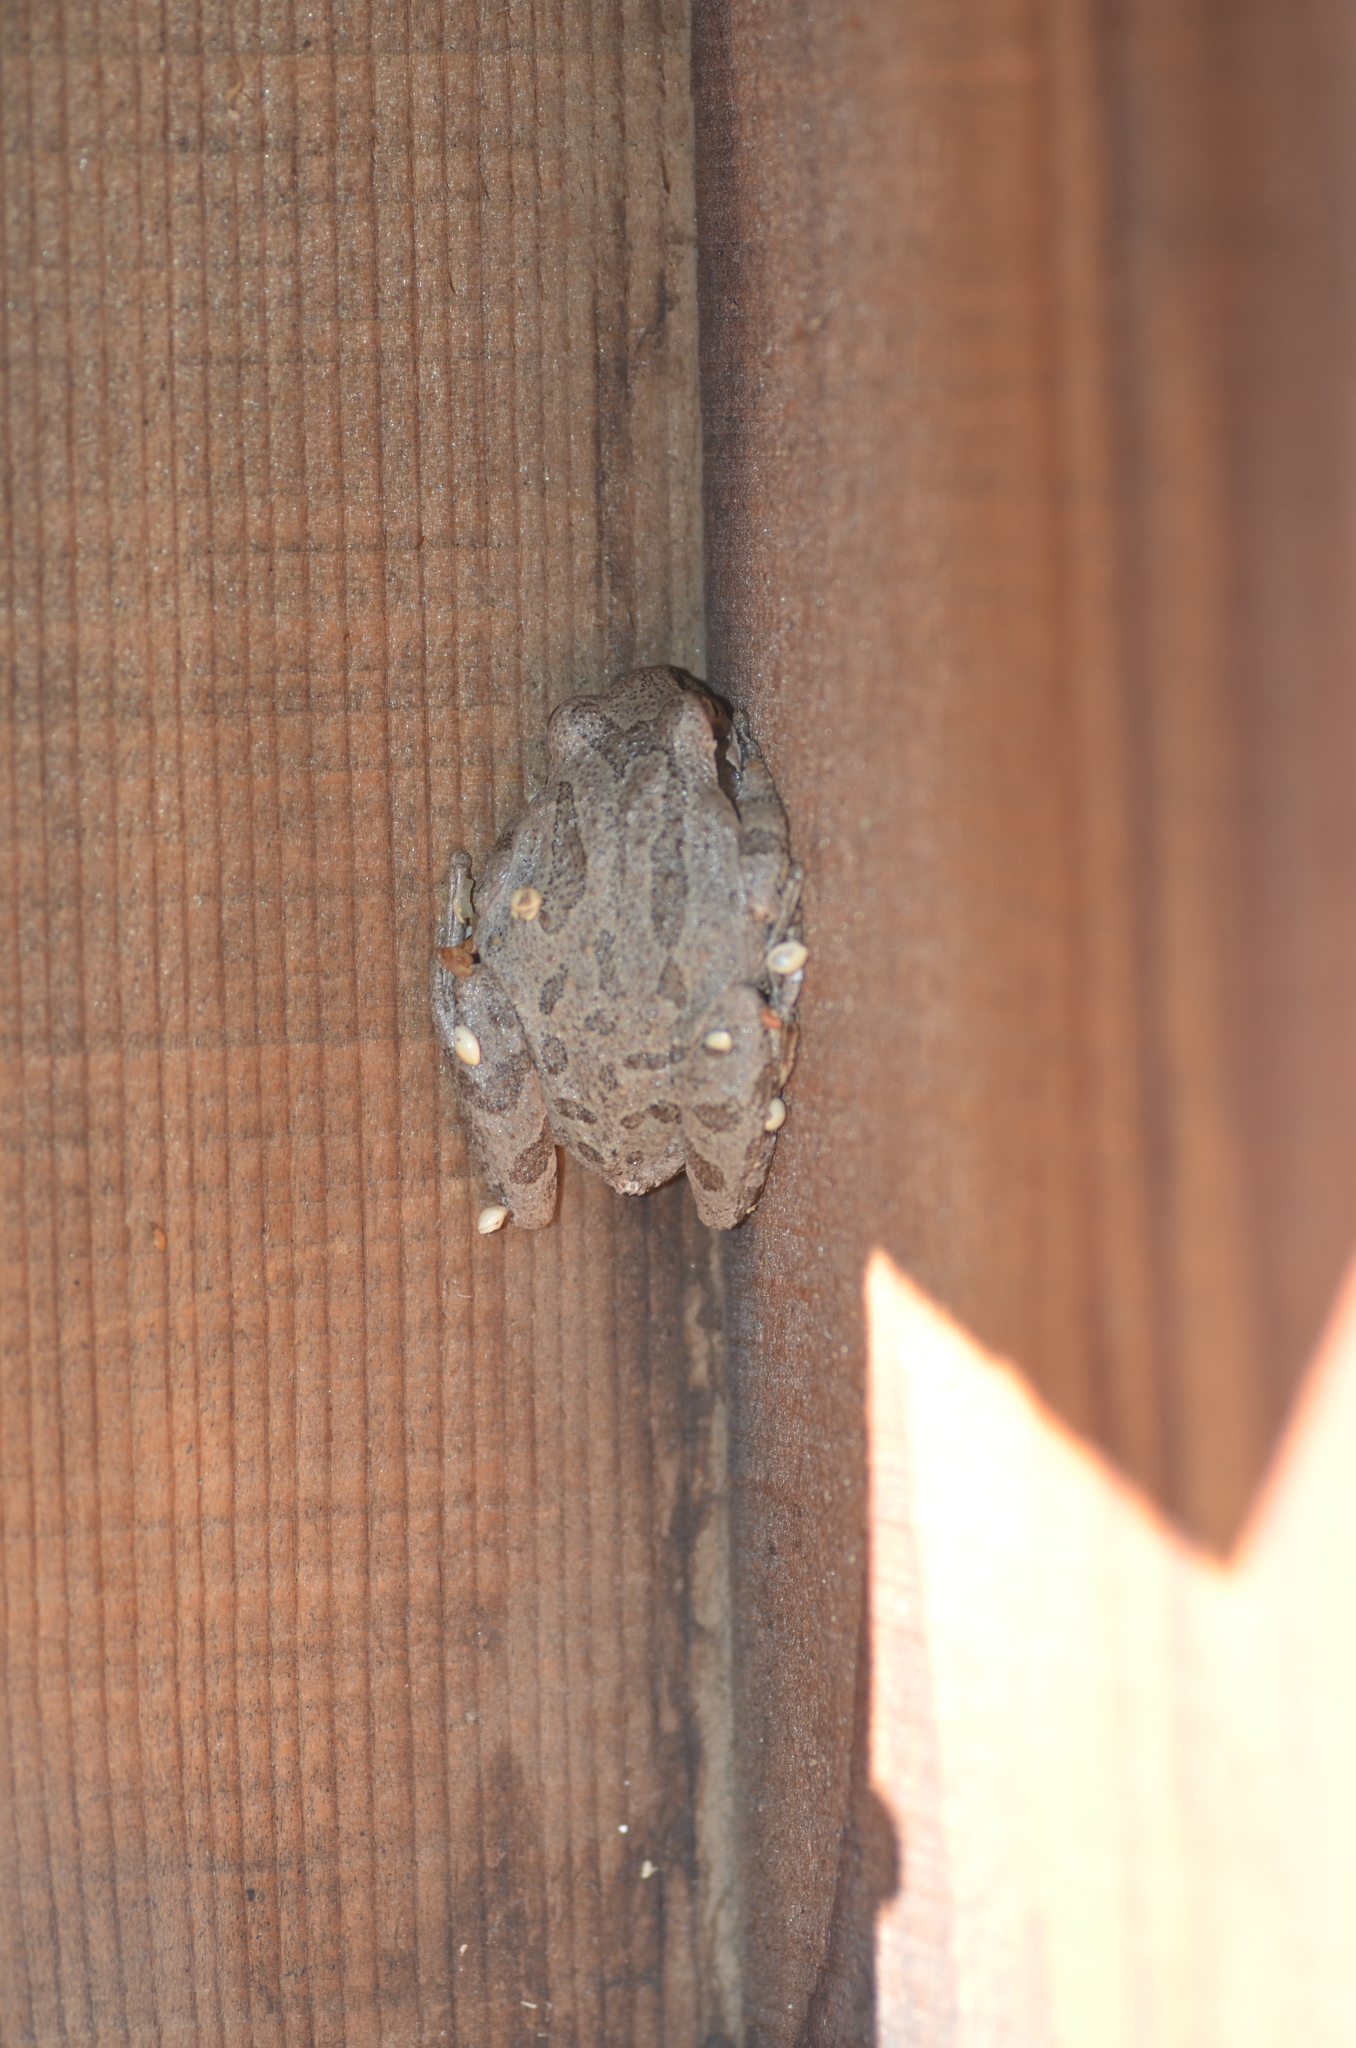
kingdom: Animalia
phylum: Chordata
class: Amphibia
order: Anura
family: Hylidae
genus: Pseudacris
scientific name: Pseudacris regilla
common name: Pacific chorus frog
